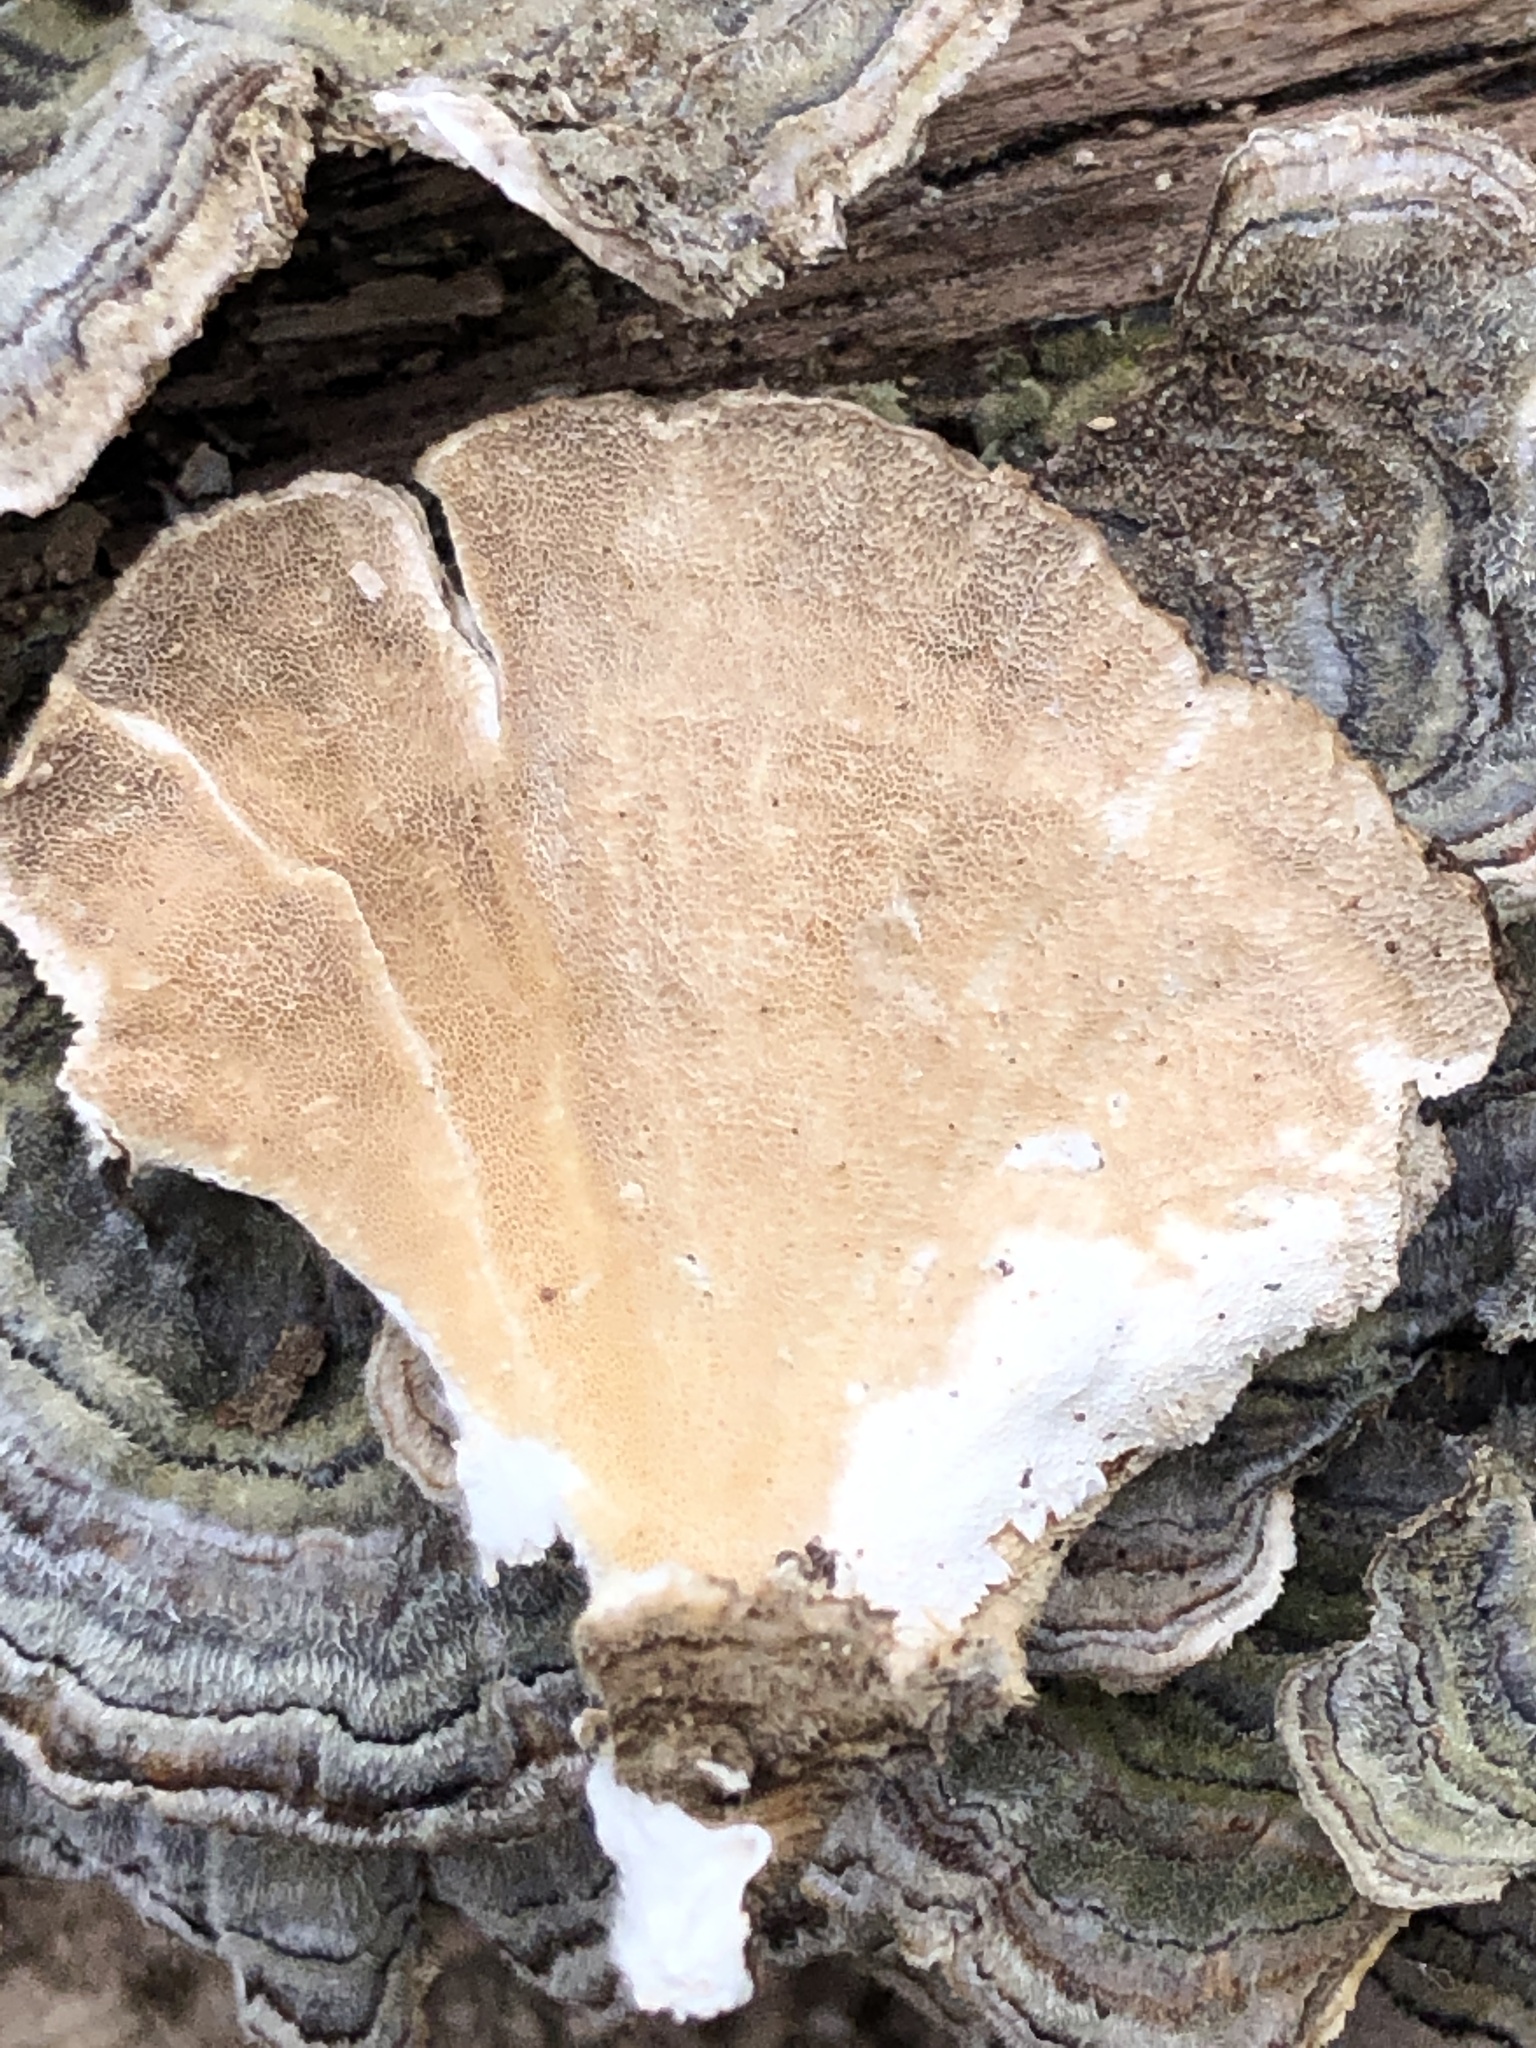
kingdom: Fungi
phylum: Basidiomycota
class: Agaricomycetes
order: Polyporales
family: Polyporaceae
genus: Trametes
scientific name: Trametes versicolor
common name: Turkeytail
